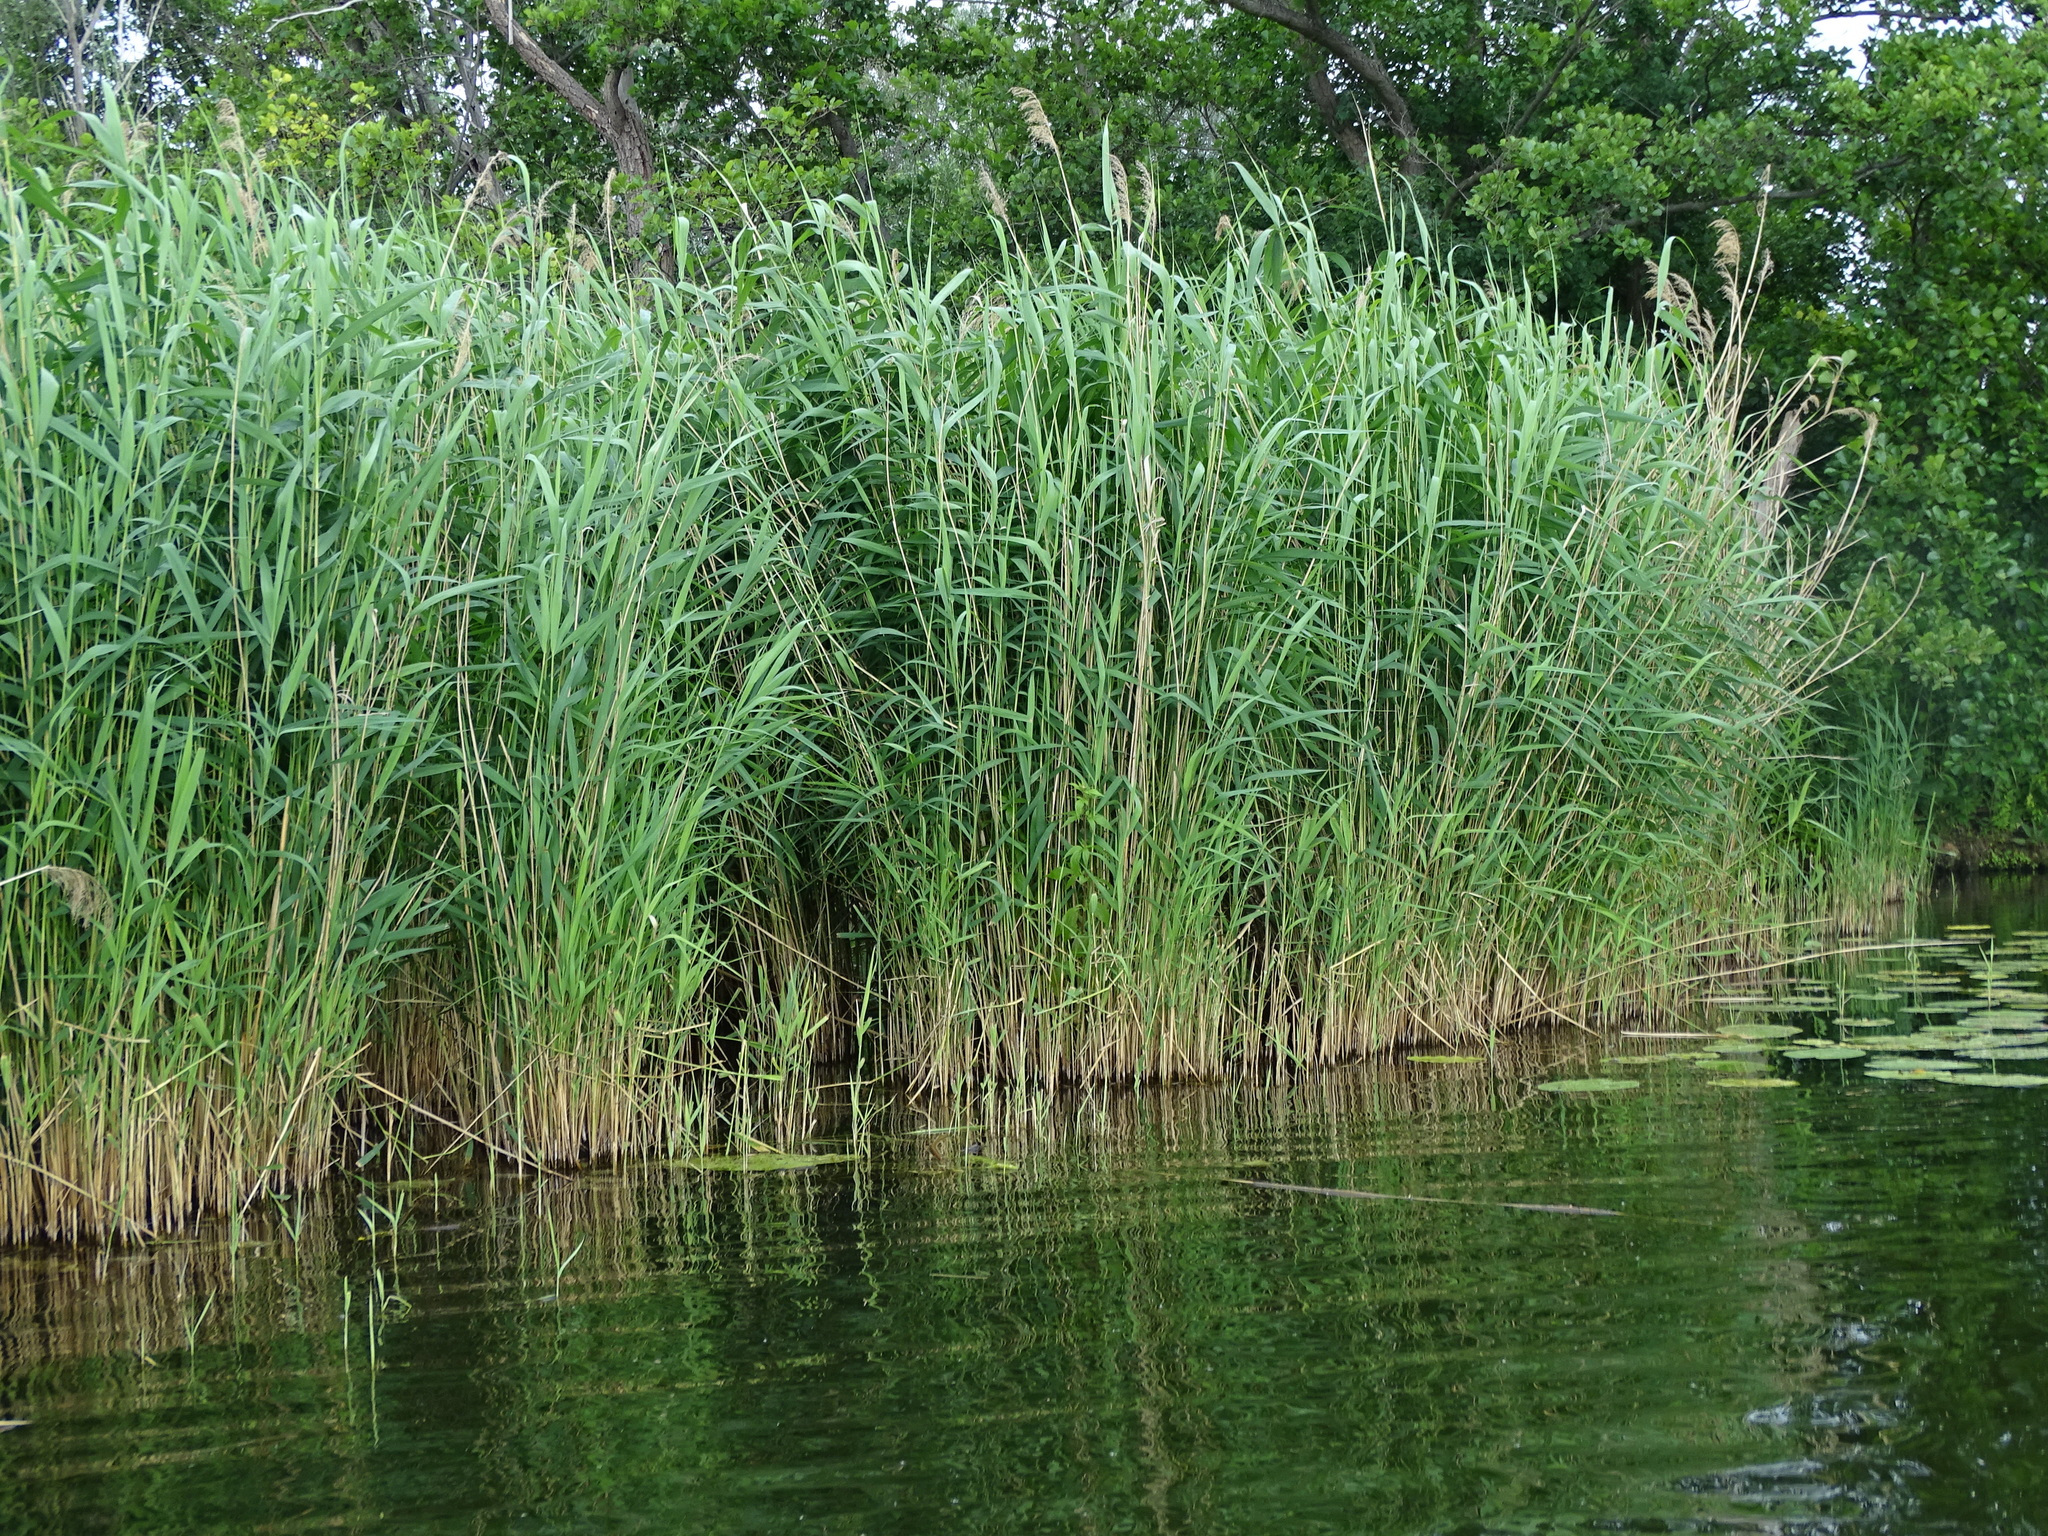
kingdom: Plantae
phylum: Tracheophyta
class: Liliopsida
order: Poales
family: Poaceae
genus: Phragmites
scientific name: Phragmites australis
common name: Common reed
